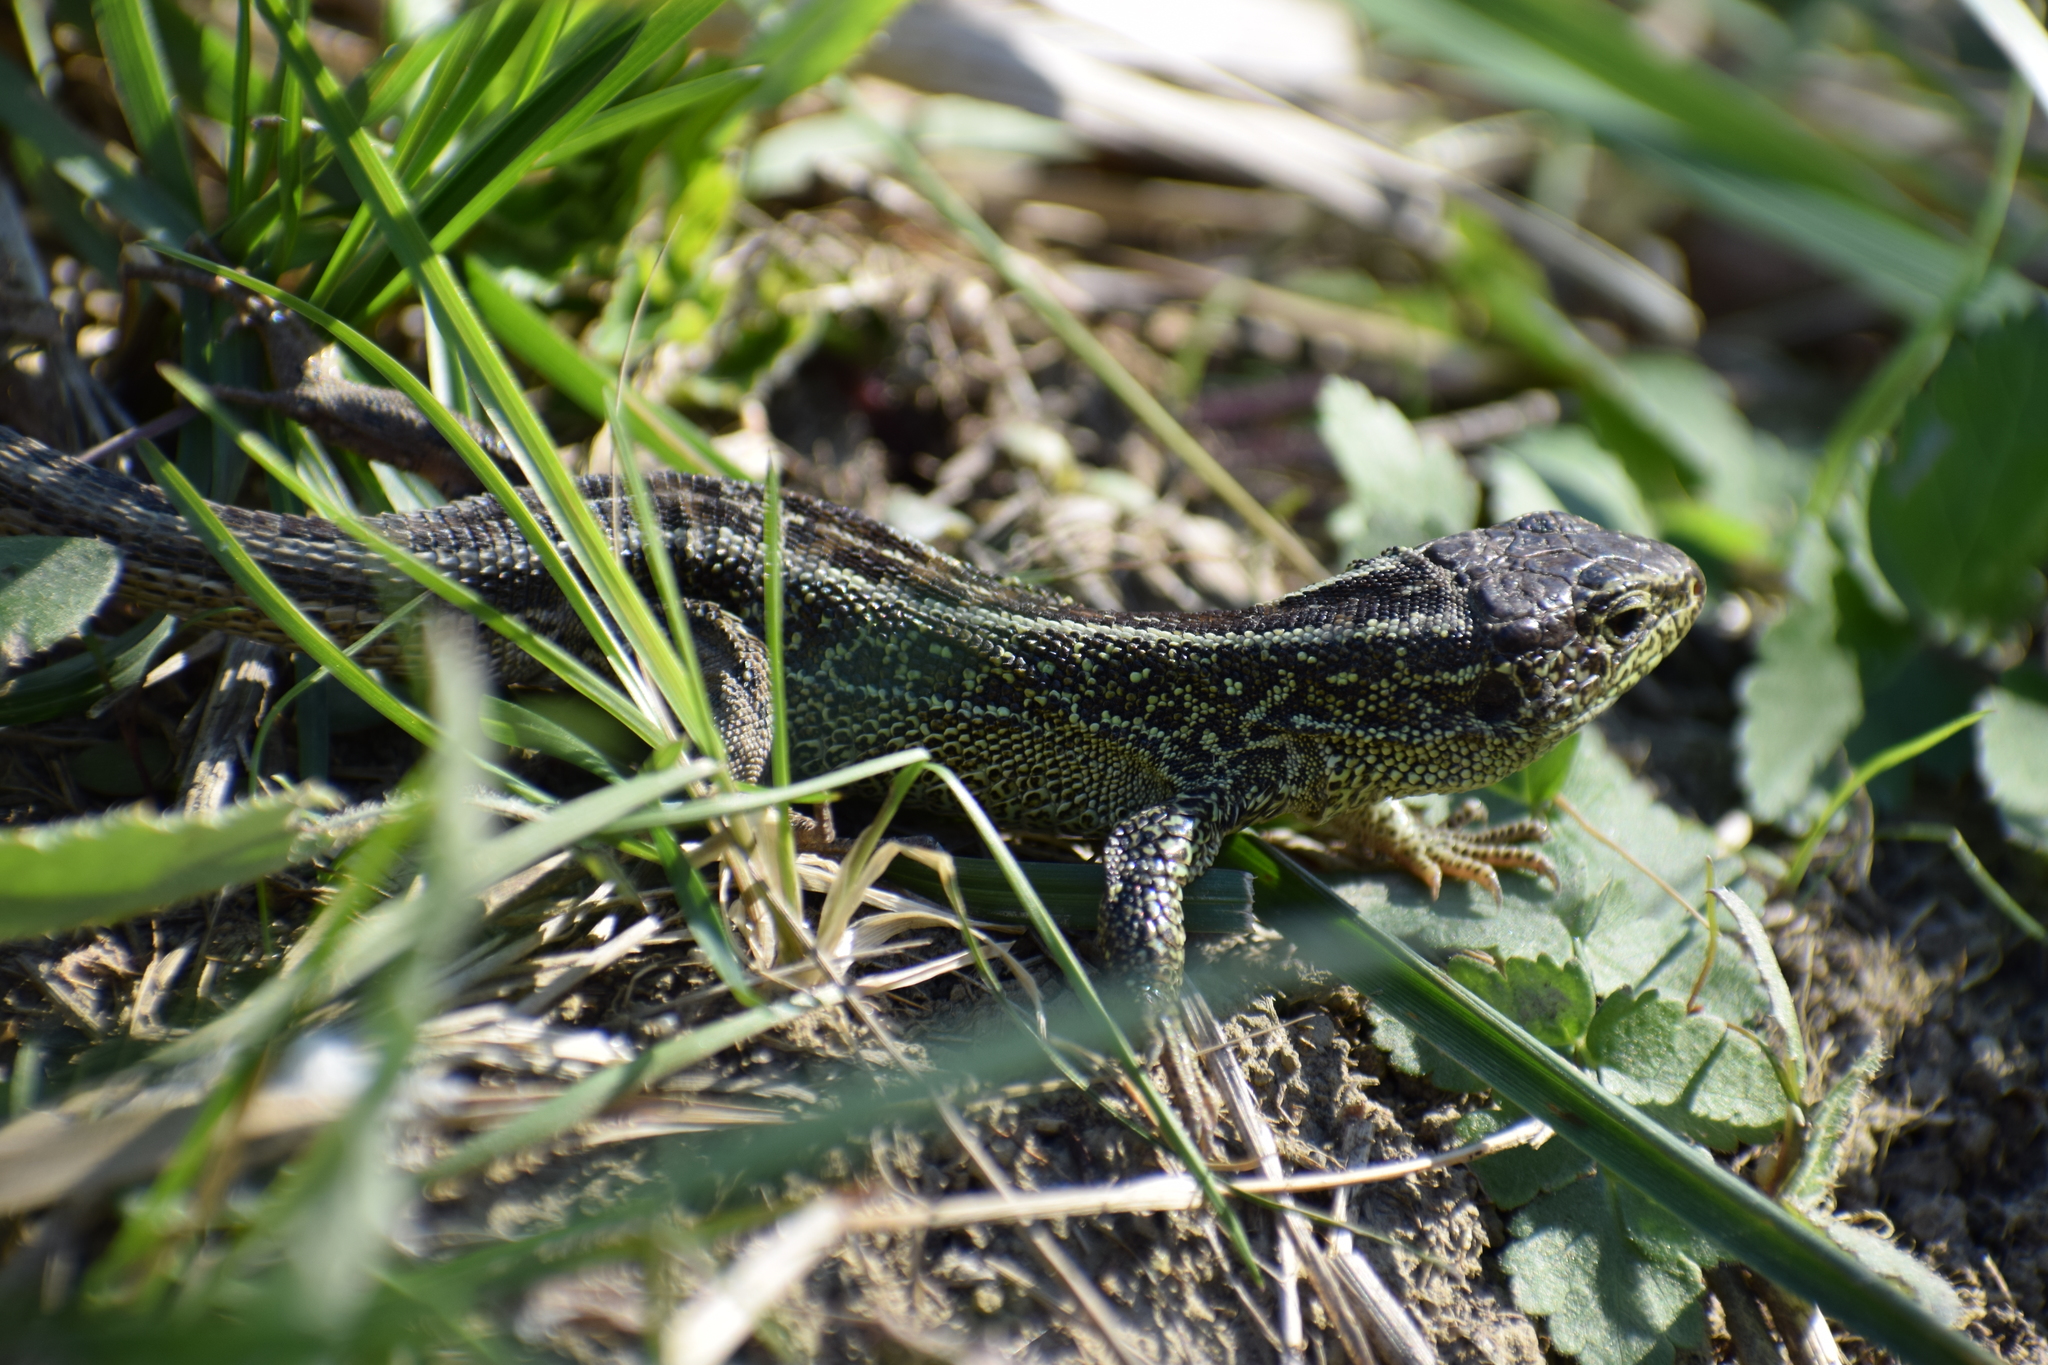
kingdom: Animalia
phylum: Chordata
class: Squamata
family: Lacertidae
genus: Lacerta
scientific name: Lacerta agilis
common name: Sand lizard
